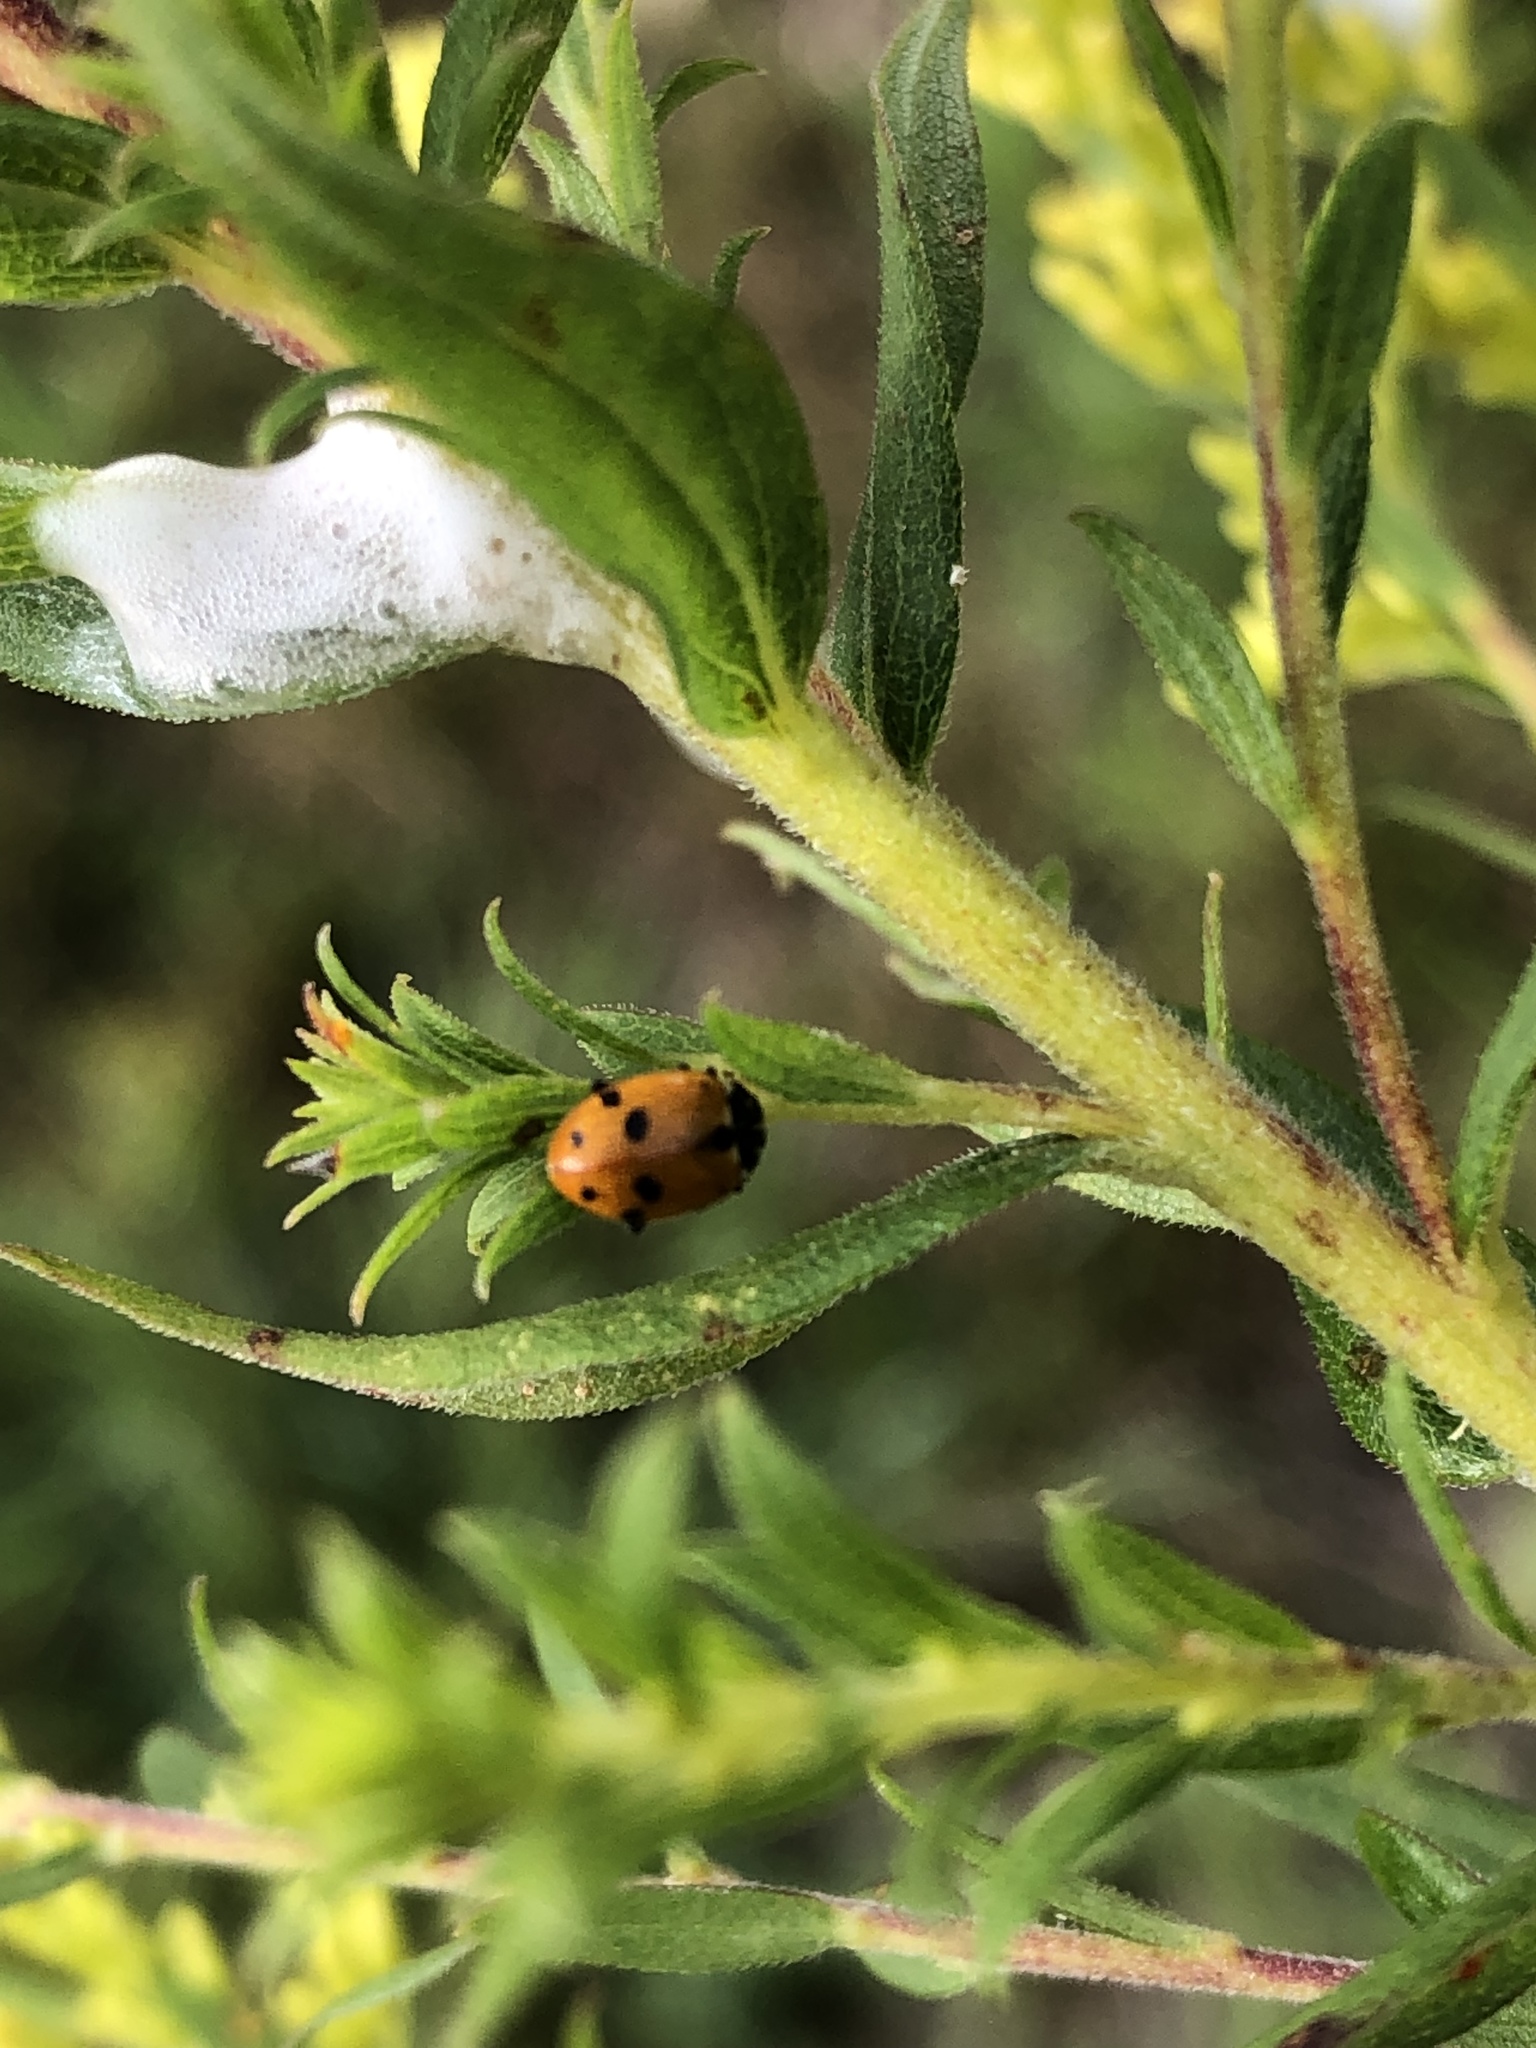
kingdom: Animalia
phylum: Arthropoda
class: Insecta
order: Coleoptera
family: Coccinellidae
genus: Hippodamia
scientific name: Hippodamia variegata
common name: Ladybird beetle
